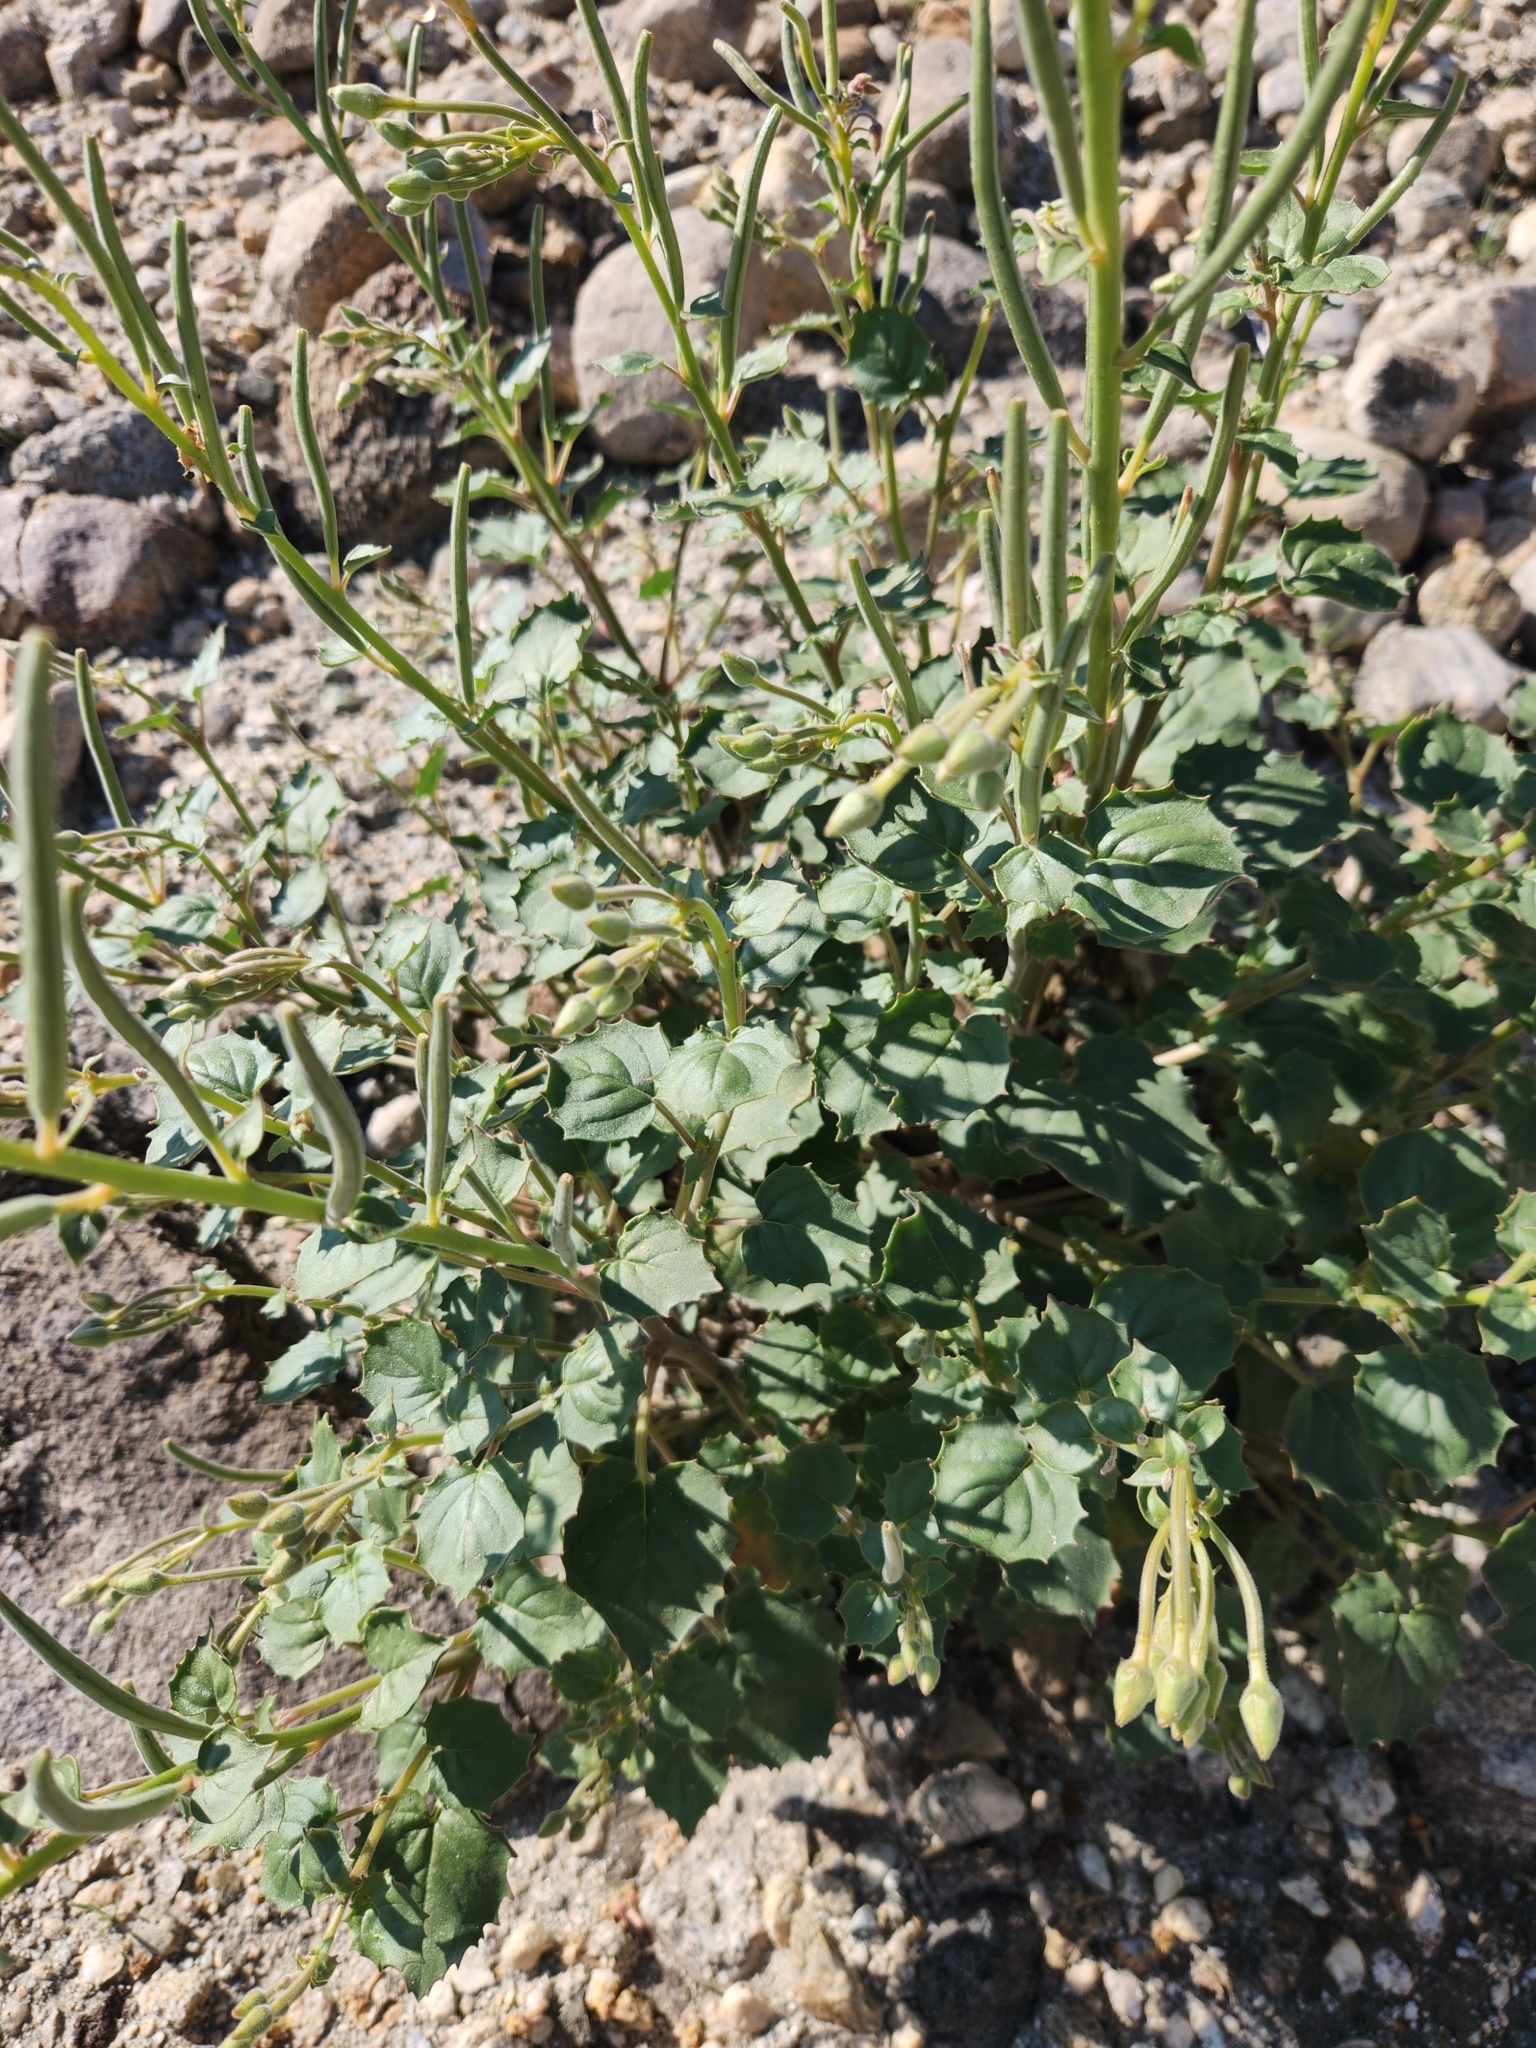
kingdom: Plantae
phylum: Tracheophyta
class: Magnoliopsida
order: Myrtales
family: Onagraceae
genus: Chylismia
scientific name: Chylismia cardiophylla
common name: Heartleaf suncup
